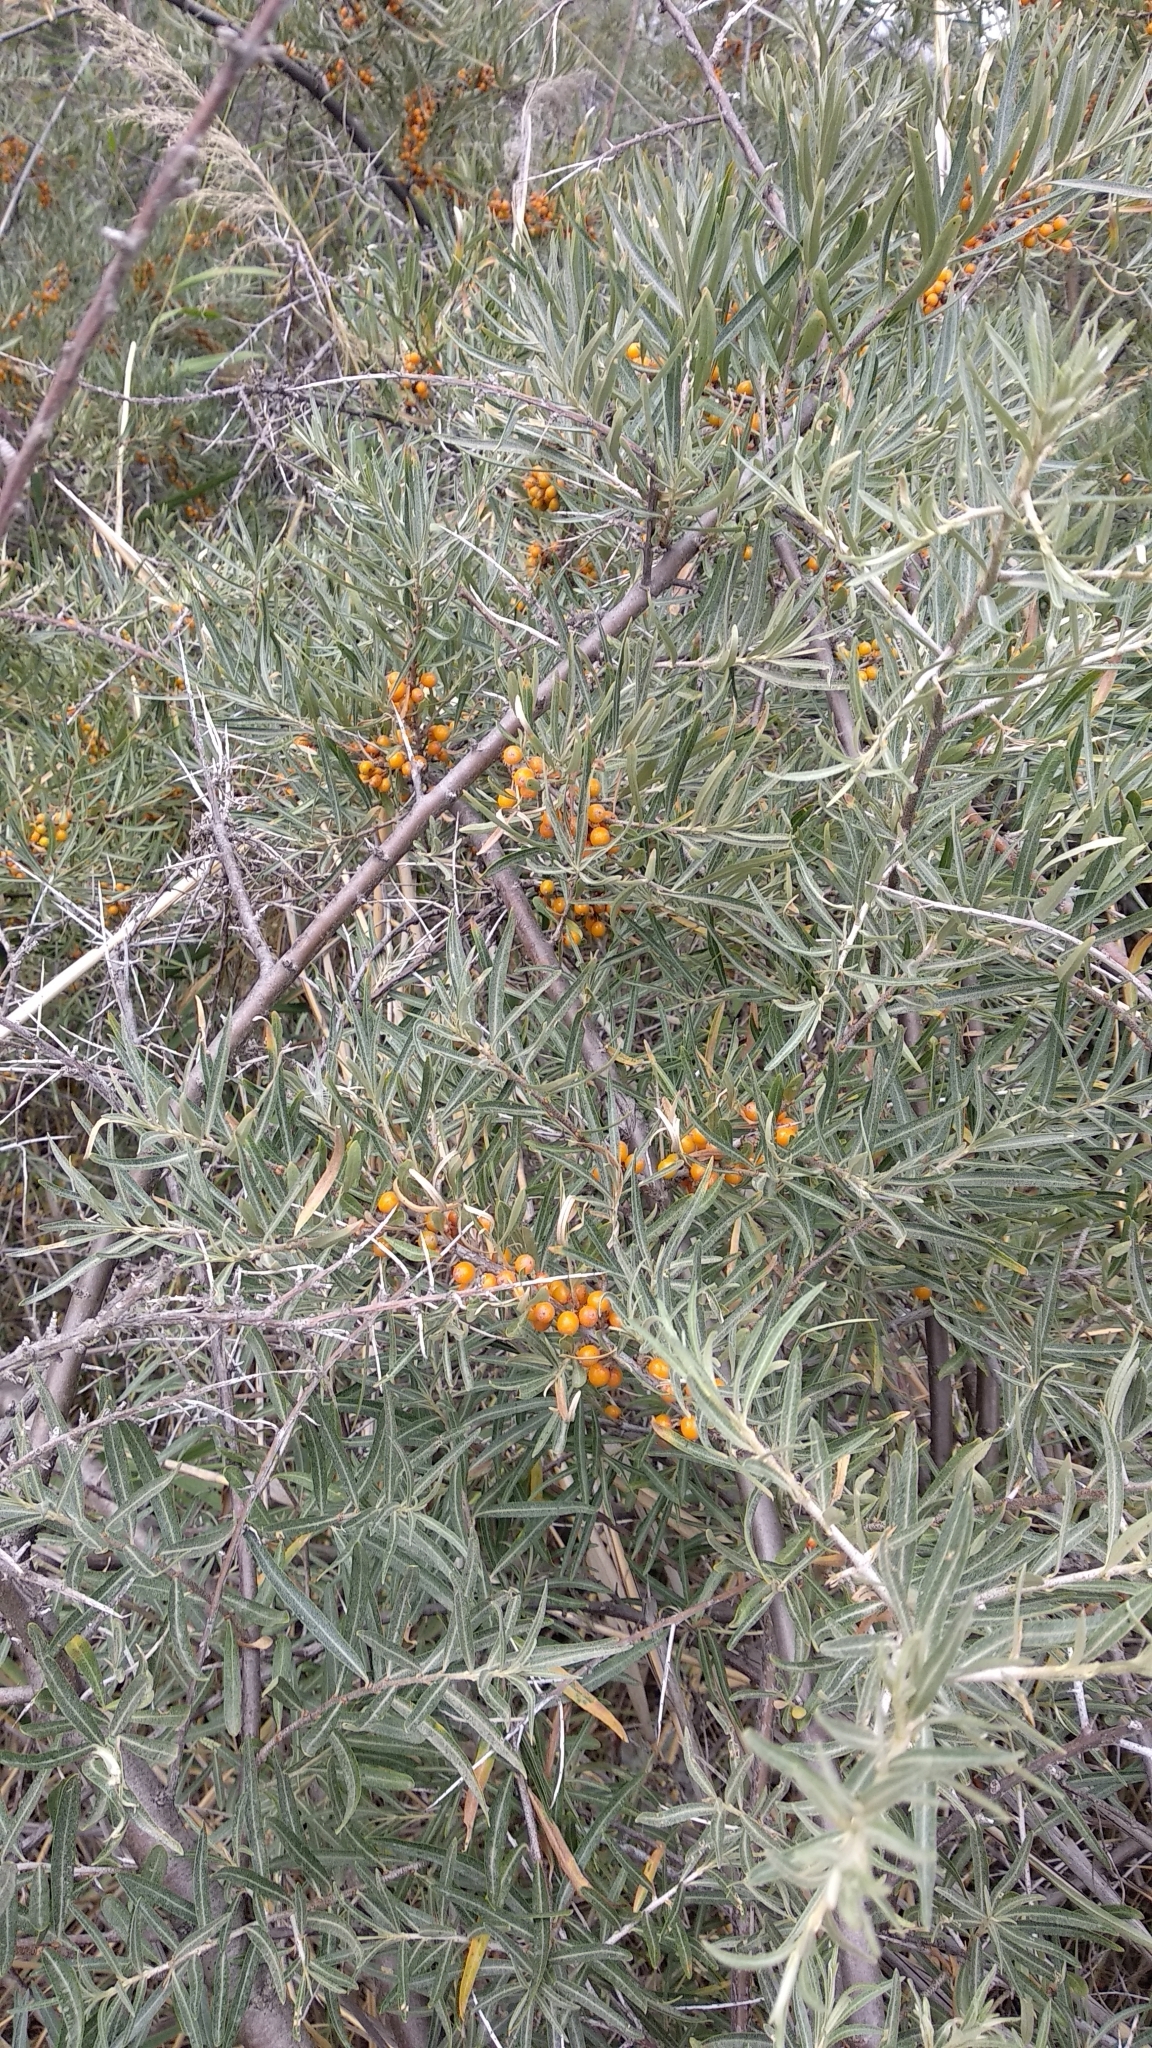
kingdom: Plantae
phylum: Tracheophyta
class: Magnoliopsida
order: Rosales
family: Elaeagnaceae
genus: Hippophae
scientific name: Hippophae rhamnoides
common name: Sea-buckthorn
